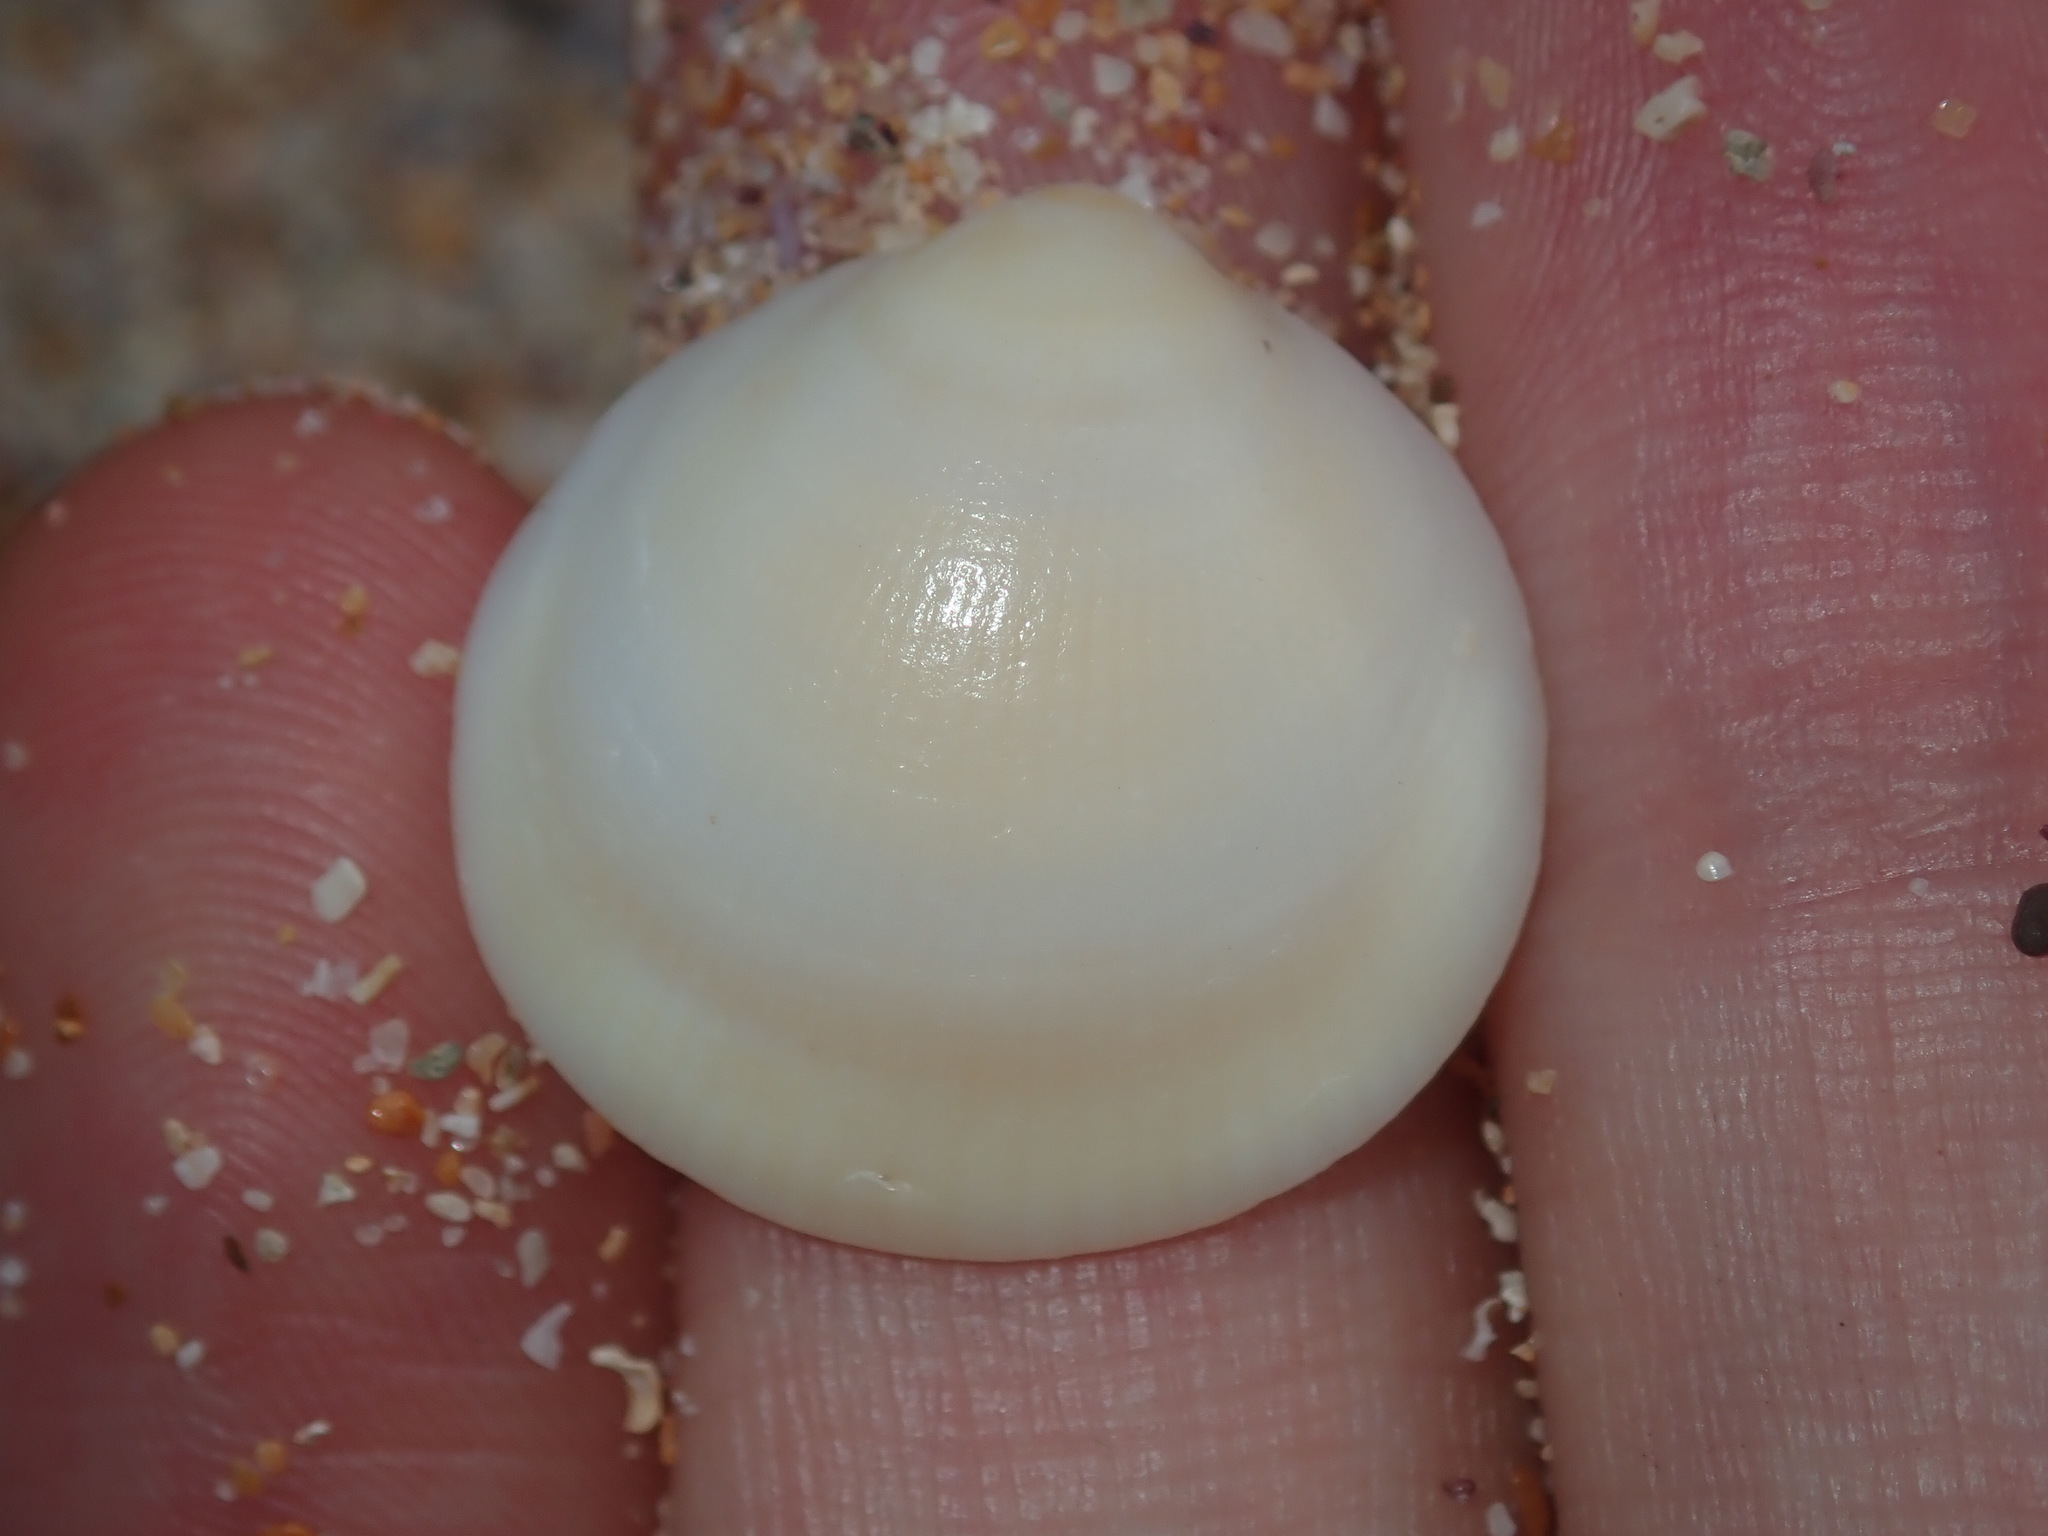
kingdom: Animalia
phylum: Mollusca
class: Bivalvia
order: Arcida
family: Glycymerididae
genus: Glycymeris
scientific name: Glycymeris holoserica
